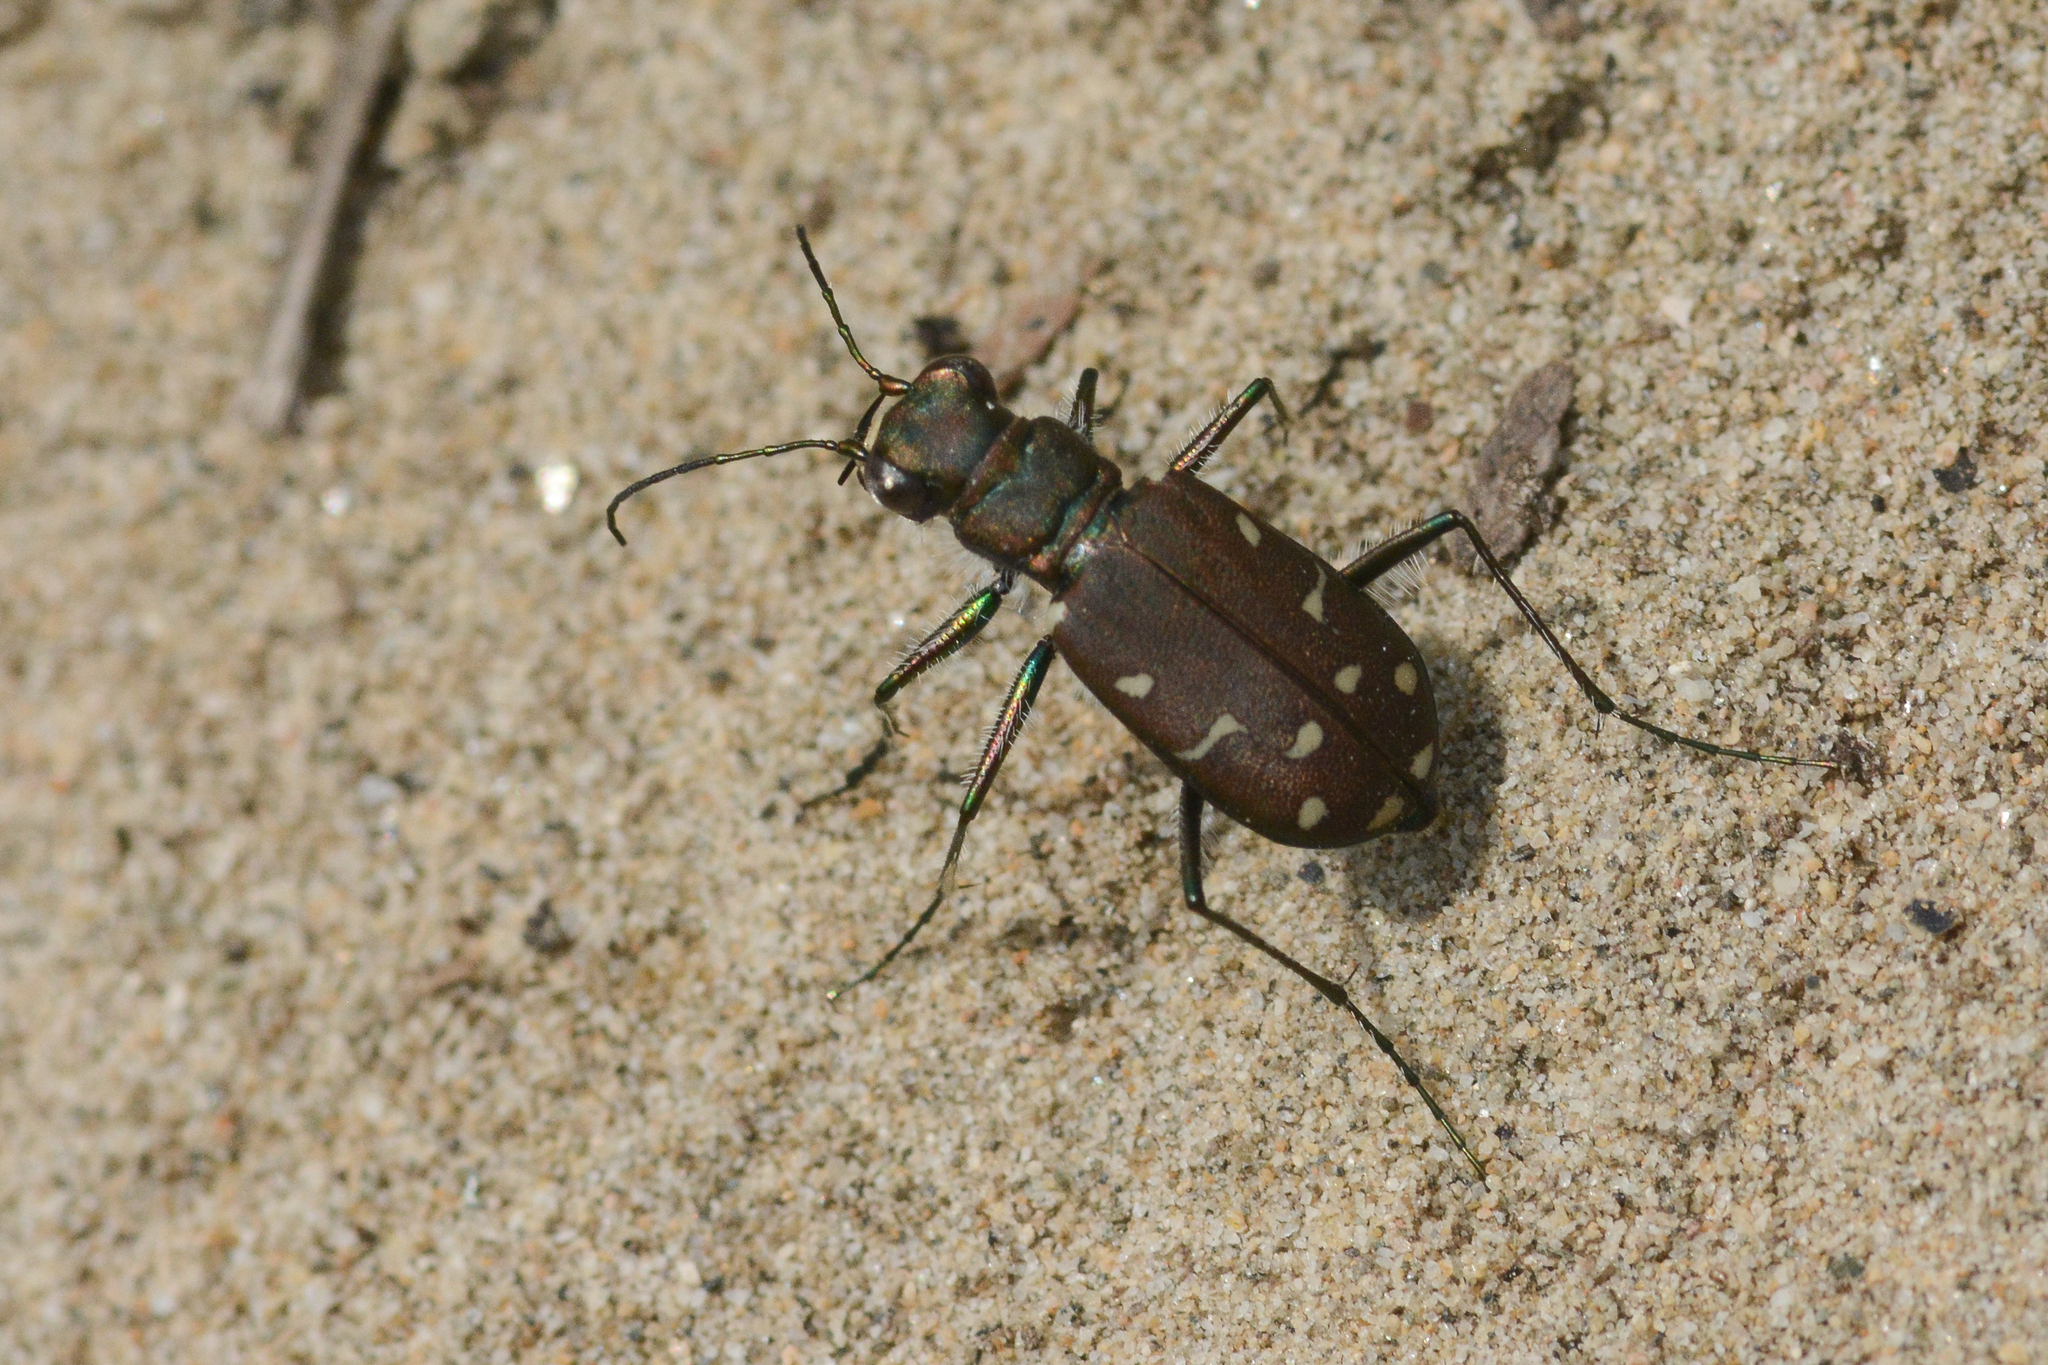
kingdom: Animalia
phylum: Arthropoda
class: Insecta
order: Coleoptera
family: Carabidae
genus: Cicindela
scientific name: Cicindela oregona
